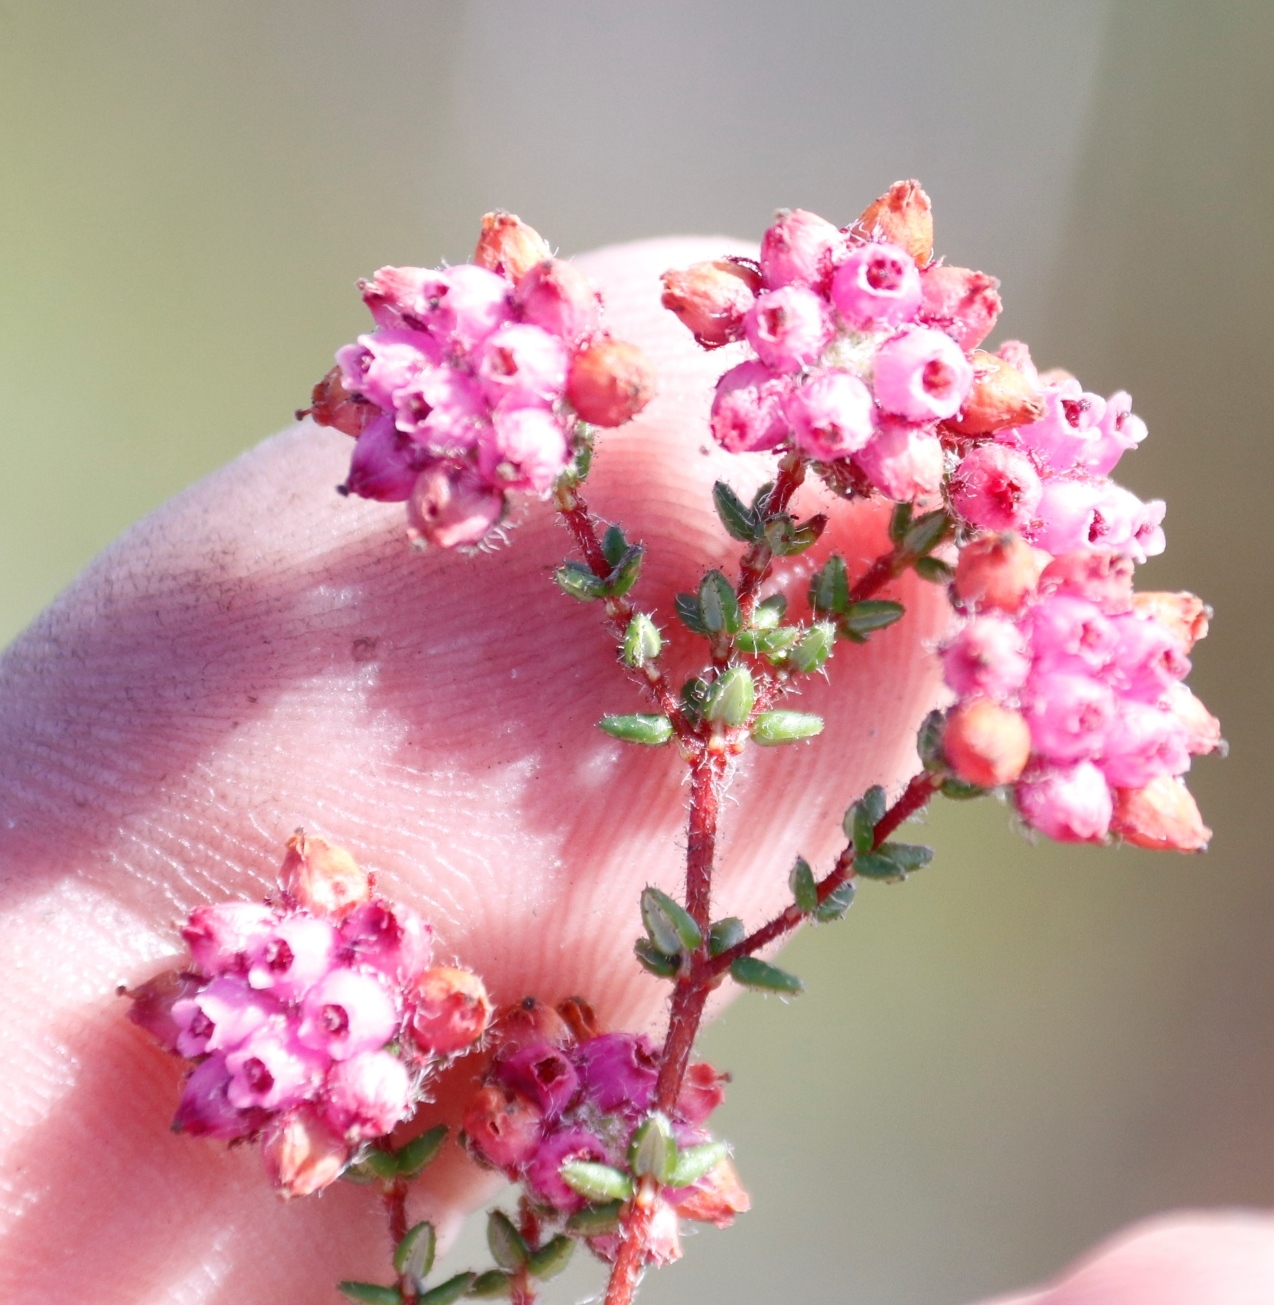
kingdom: Plantae
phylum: Tracheophyta
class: Magnoliopsida
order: Ericales
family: Ericaceae
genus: Erica
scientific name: Erica clavisepala
